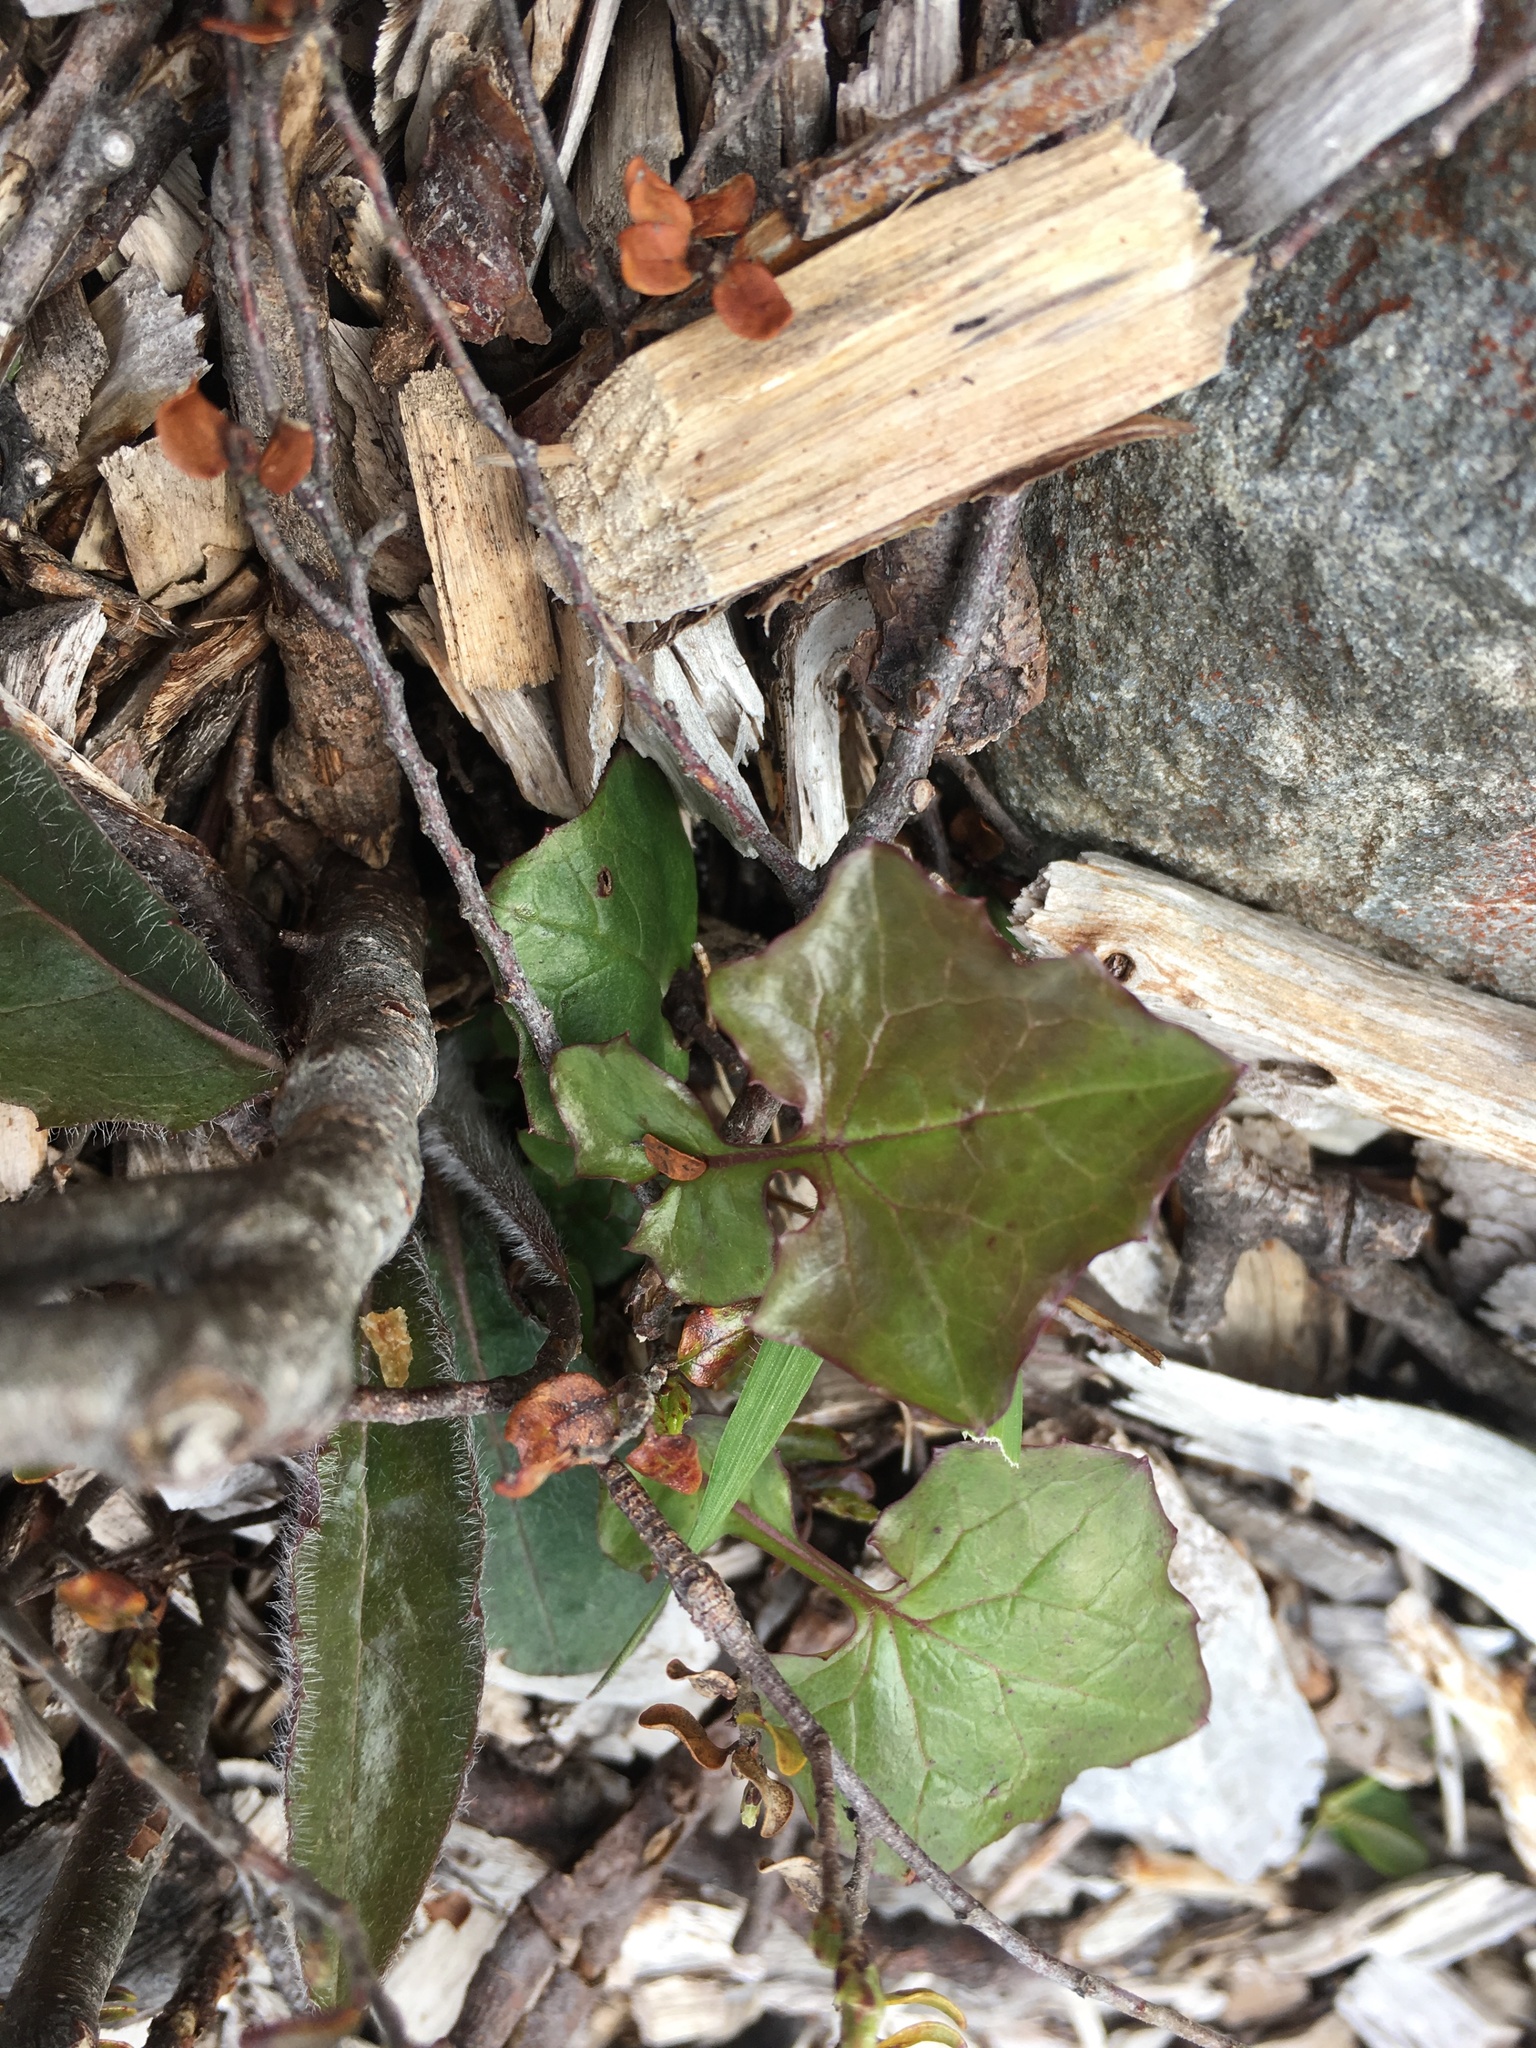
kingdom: Plantae
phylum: Tracheophyta
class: Magnoliopsida
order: Asterales
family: Asteraceae
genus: Mycelis
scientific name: Mycelis muralis
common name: Wall lettuce
